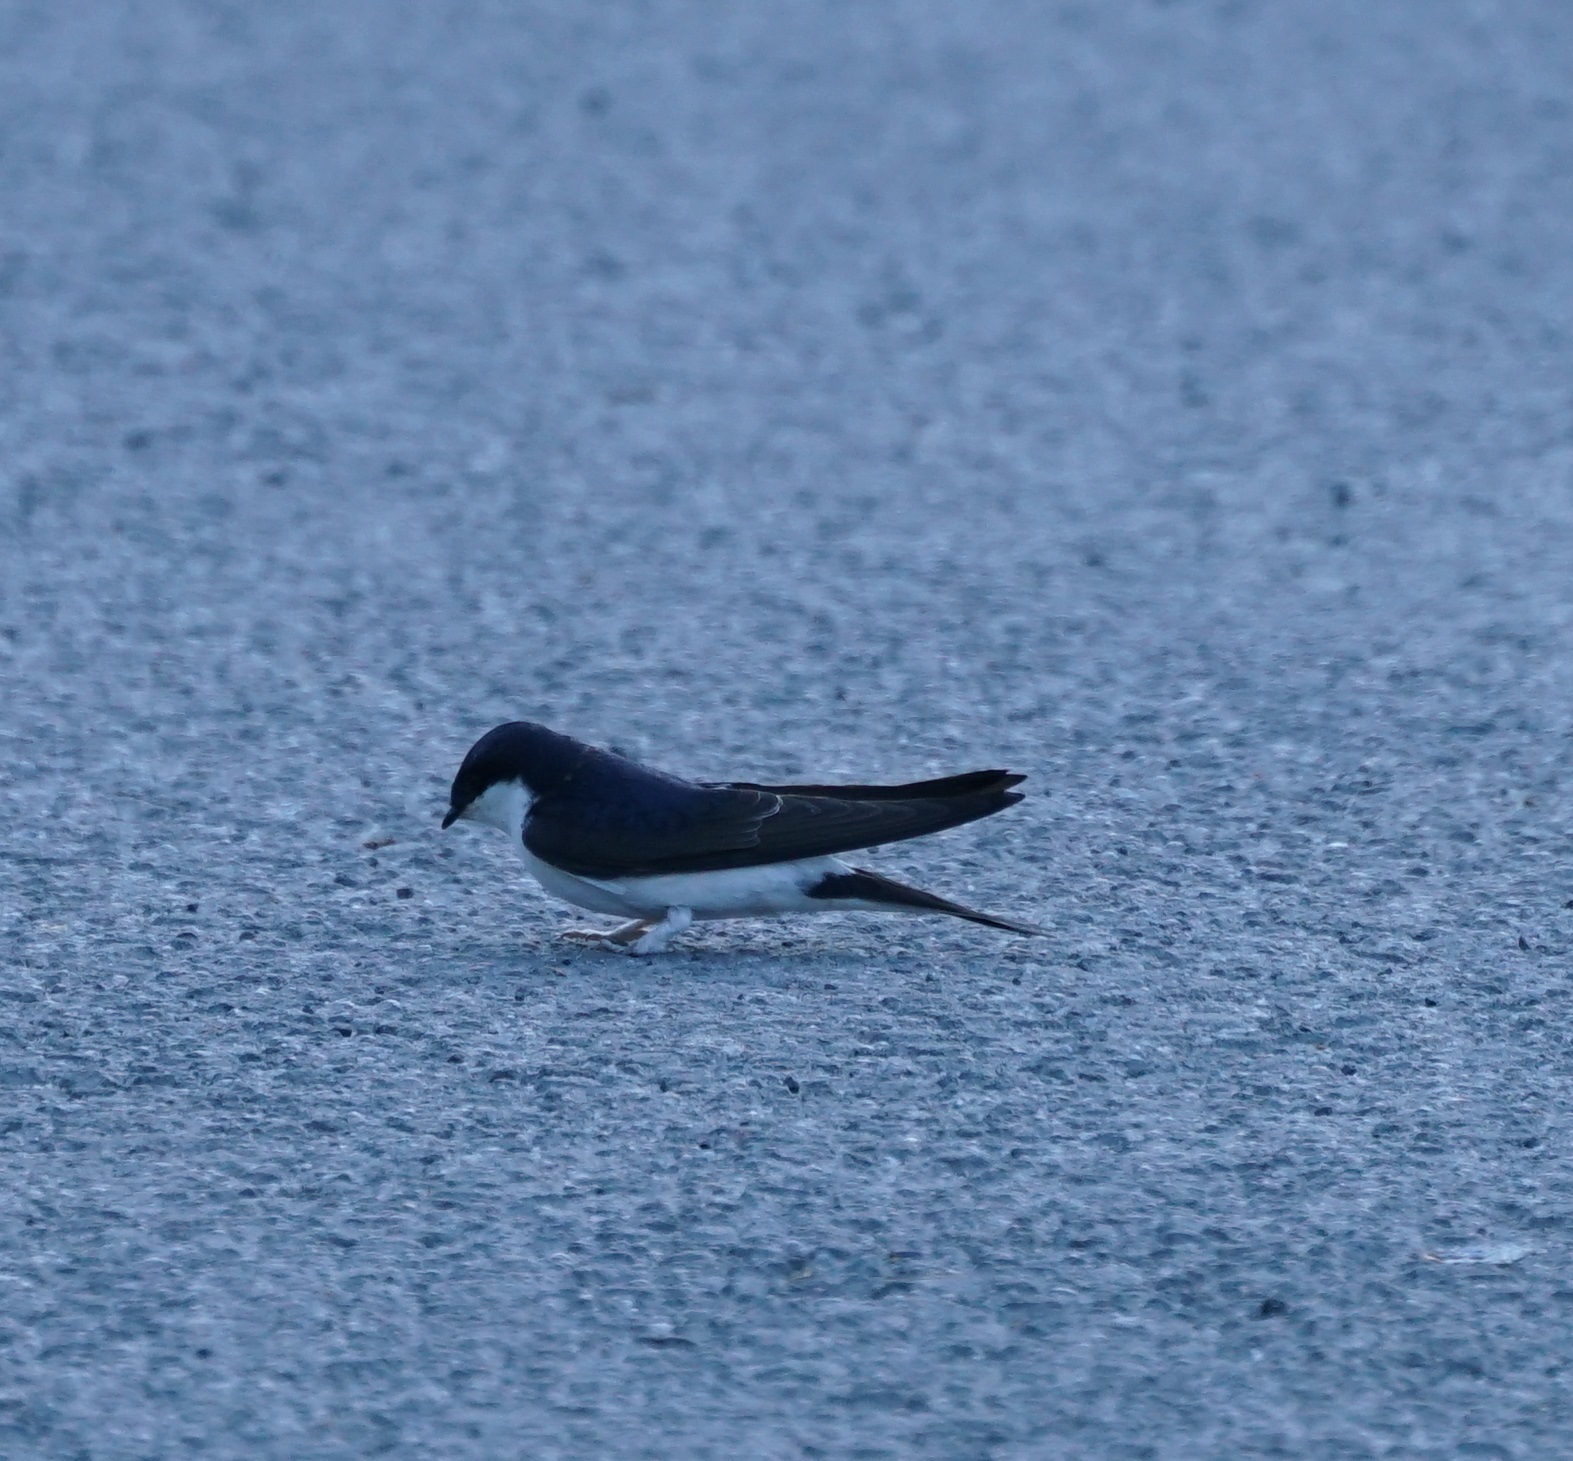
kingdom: Animalia
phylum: Chordata
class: Aves
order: Passeriformes
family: Hirundinidae
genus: Delichon
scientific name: Delichon urbicum
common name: Common house martin
